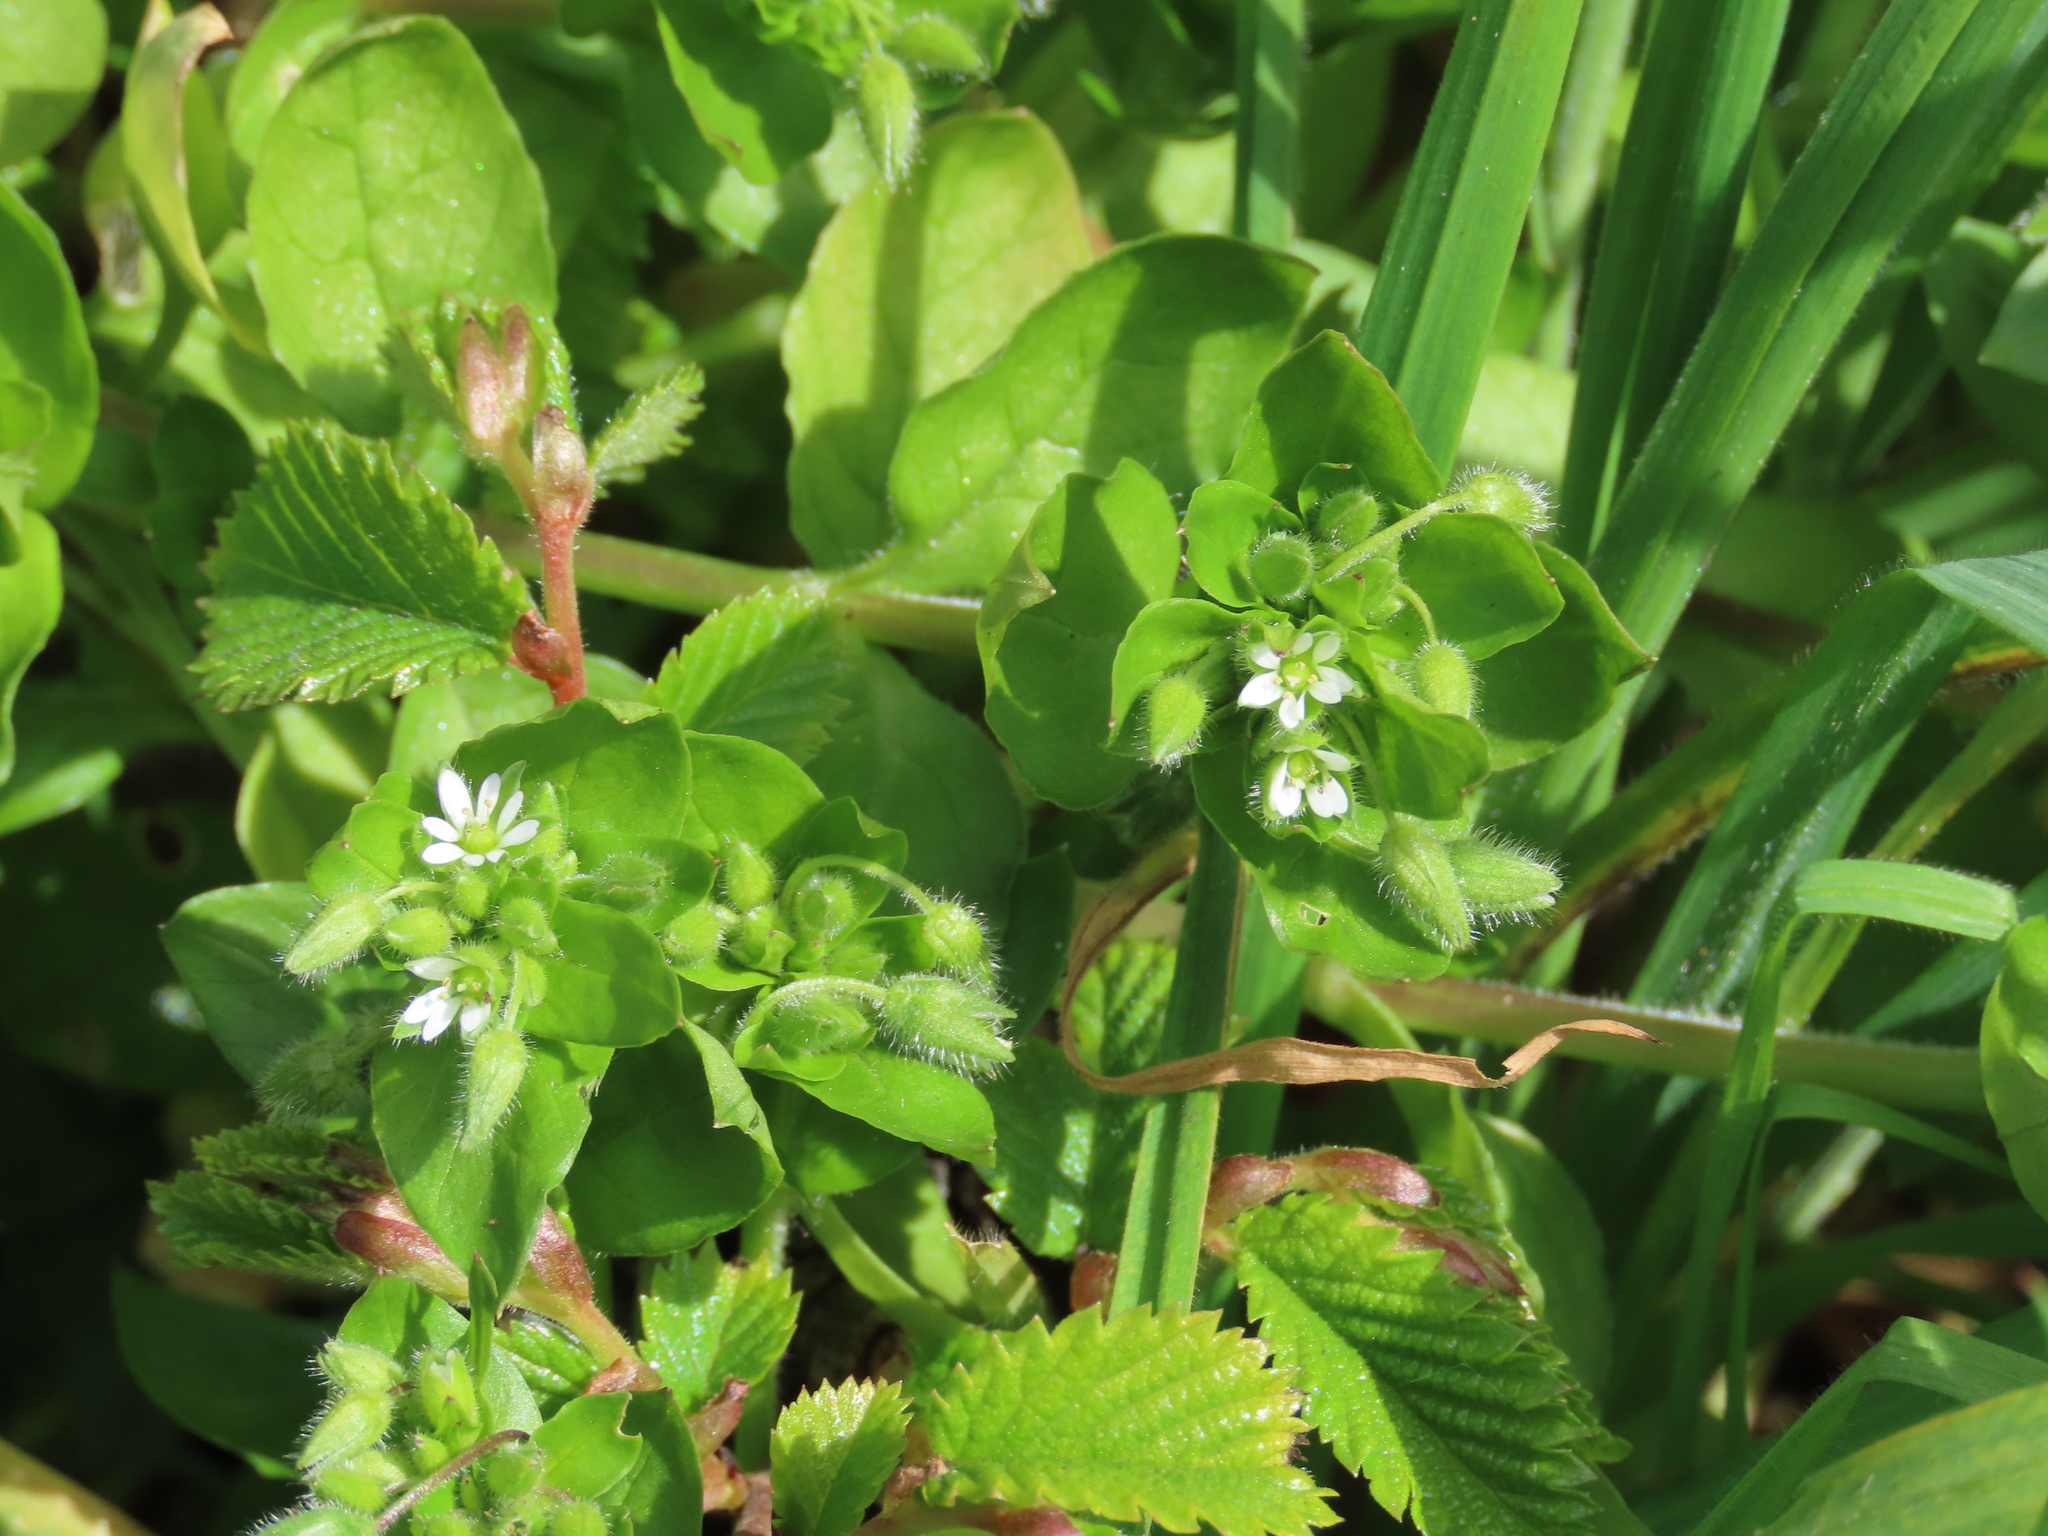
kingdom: Plantae
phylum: Tracheophyta
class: Magnoliopsida
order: Caryophyllales
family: Caryophyllaceae
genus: Stellaria
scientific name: Stellaria media
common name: Common chickweed
